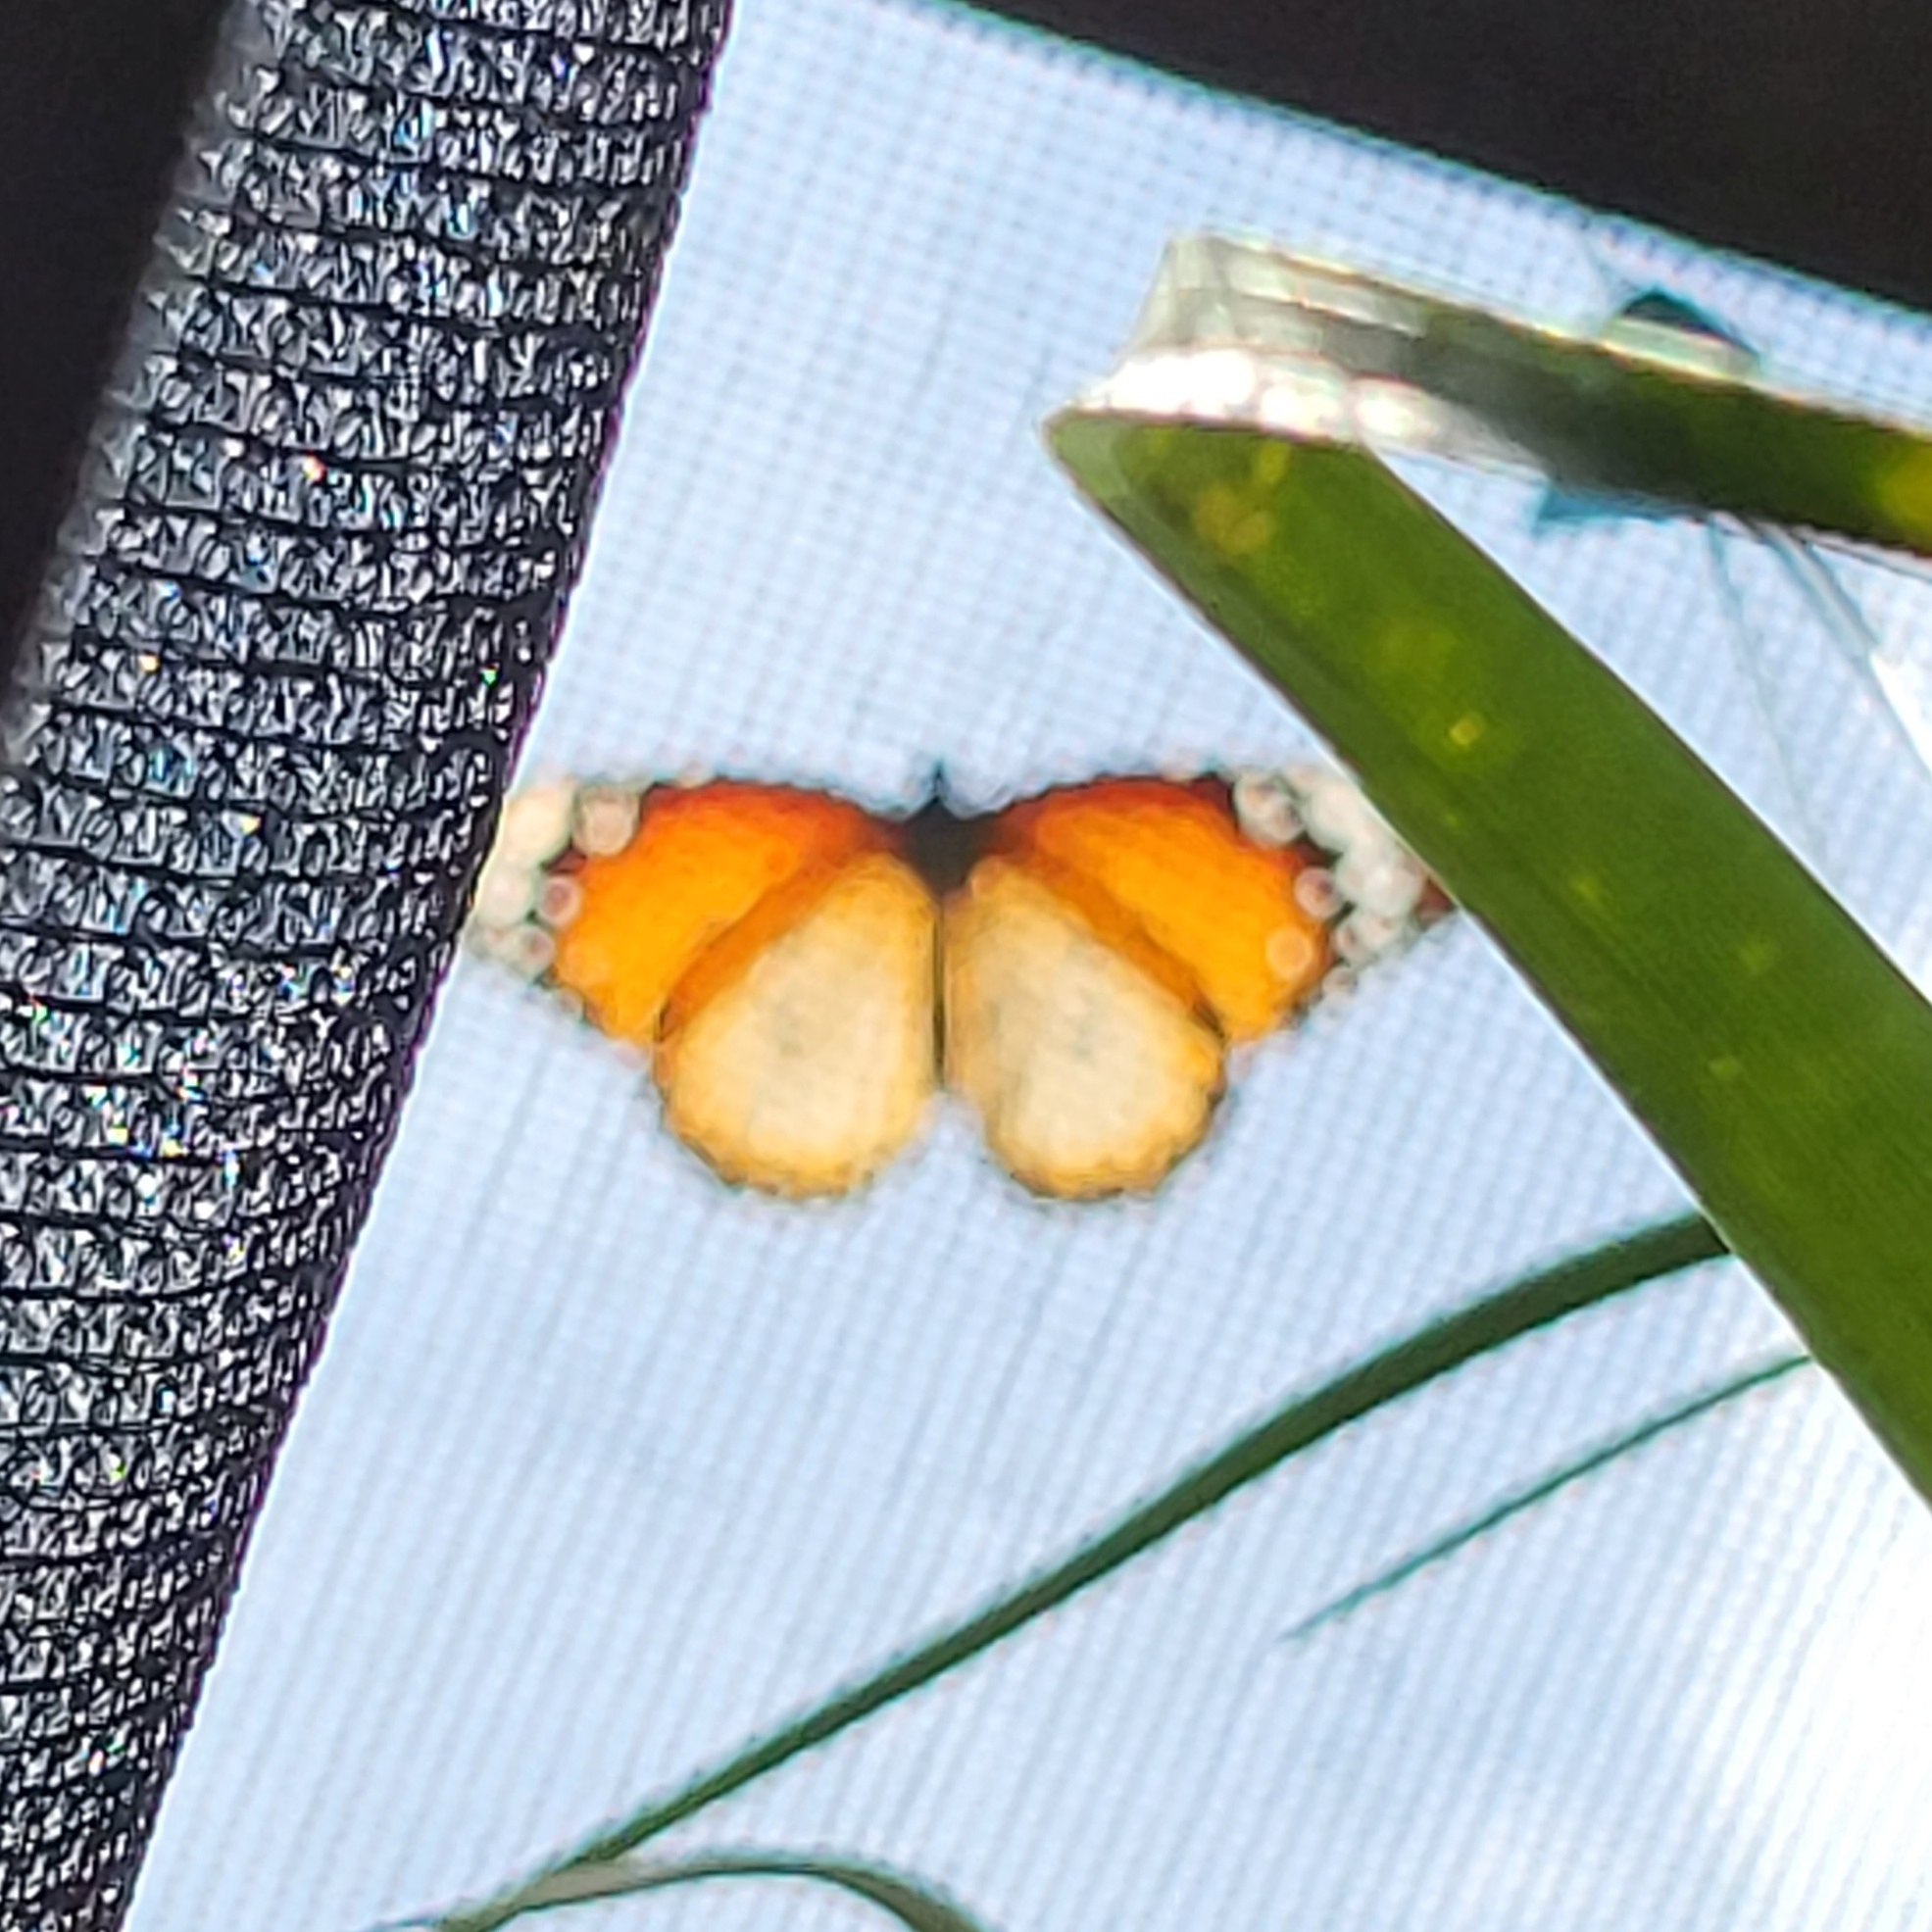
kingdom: Animalia
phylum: Arthropoda
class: Insecta
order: Lepidoptera
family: Nymphalidae
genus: Danaus
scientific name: Danaus chrysippus
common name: Plain tiger
